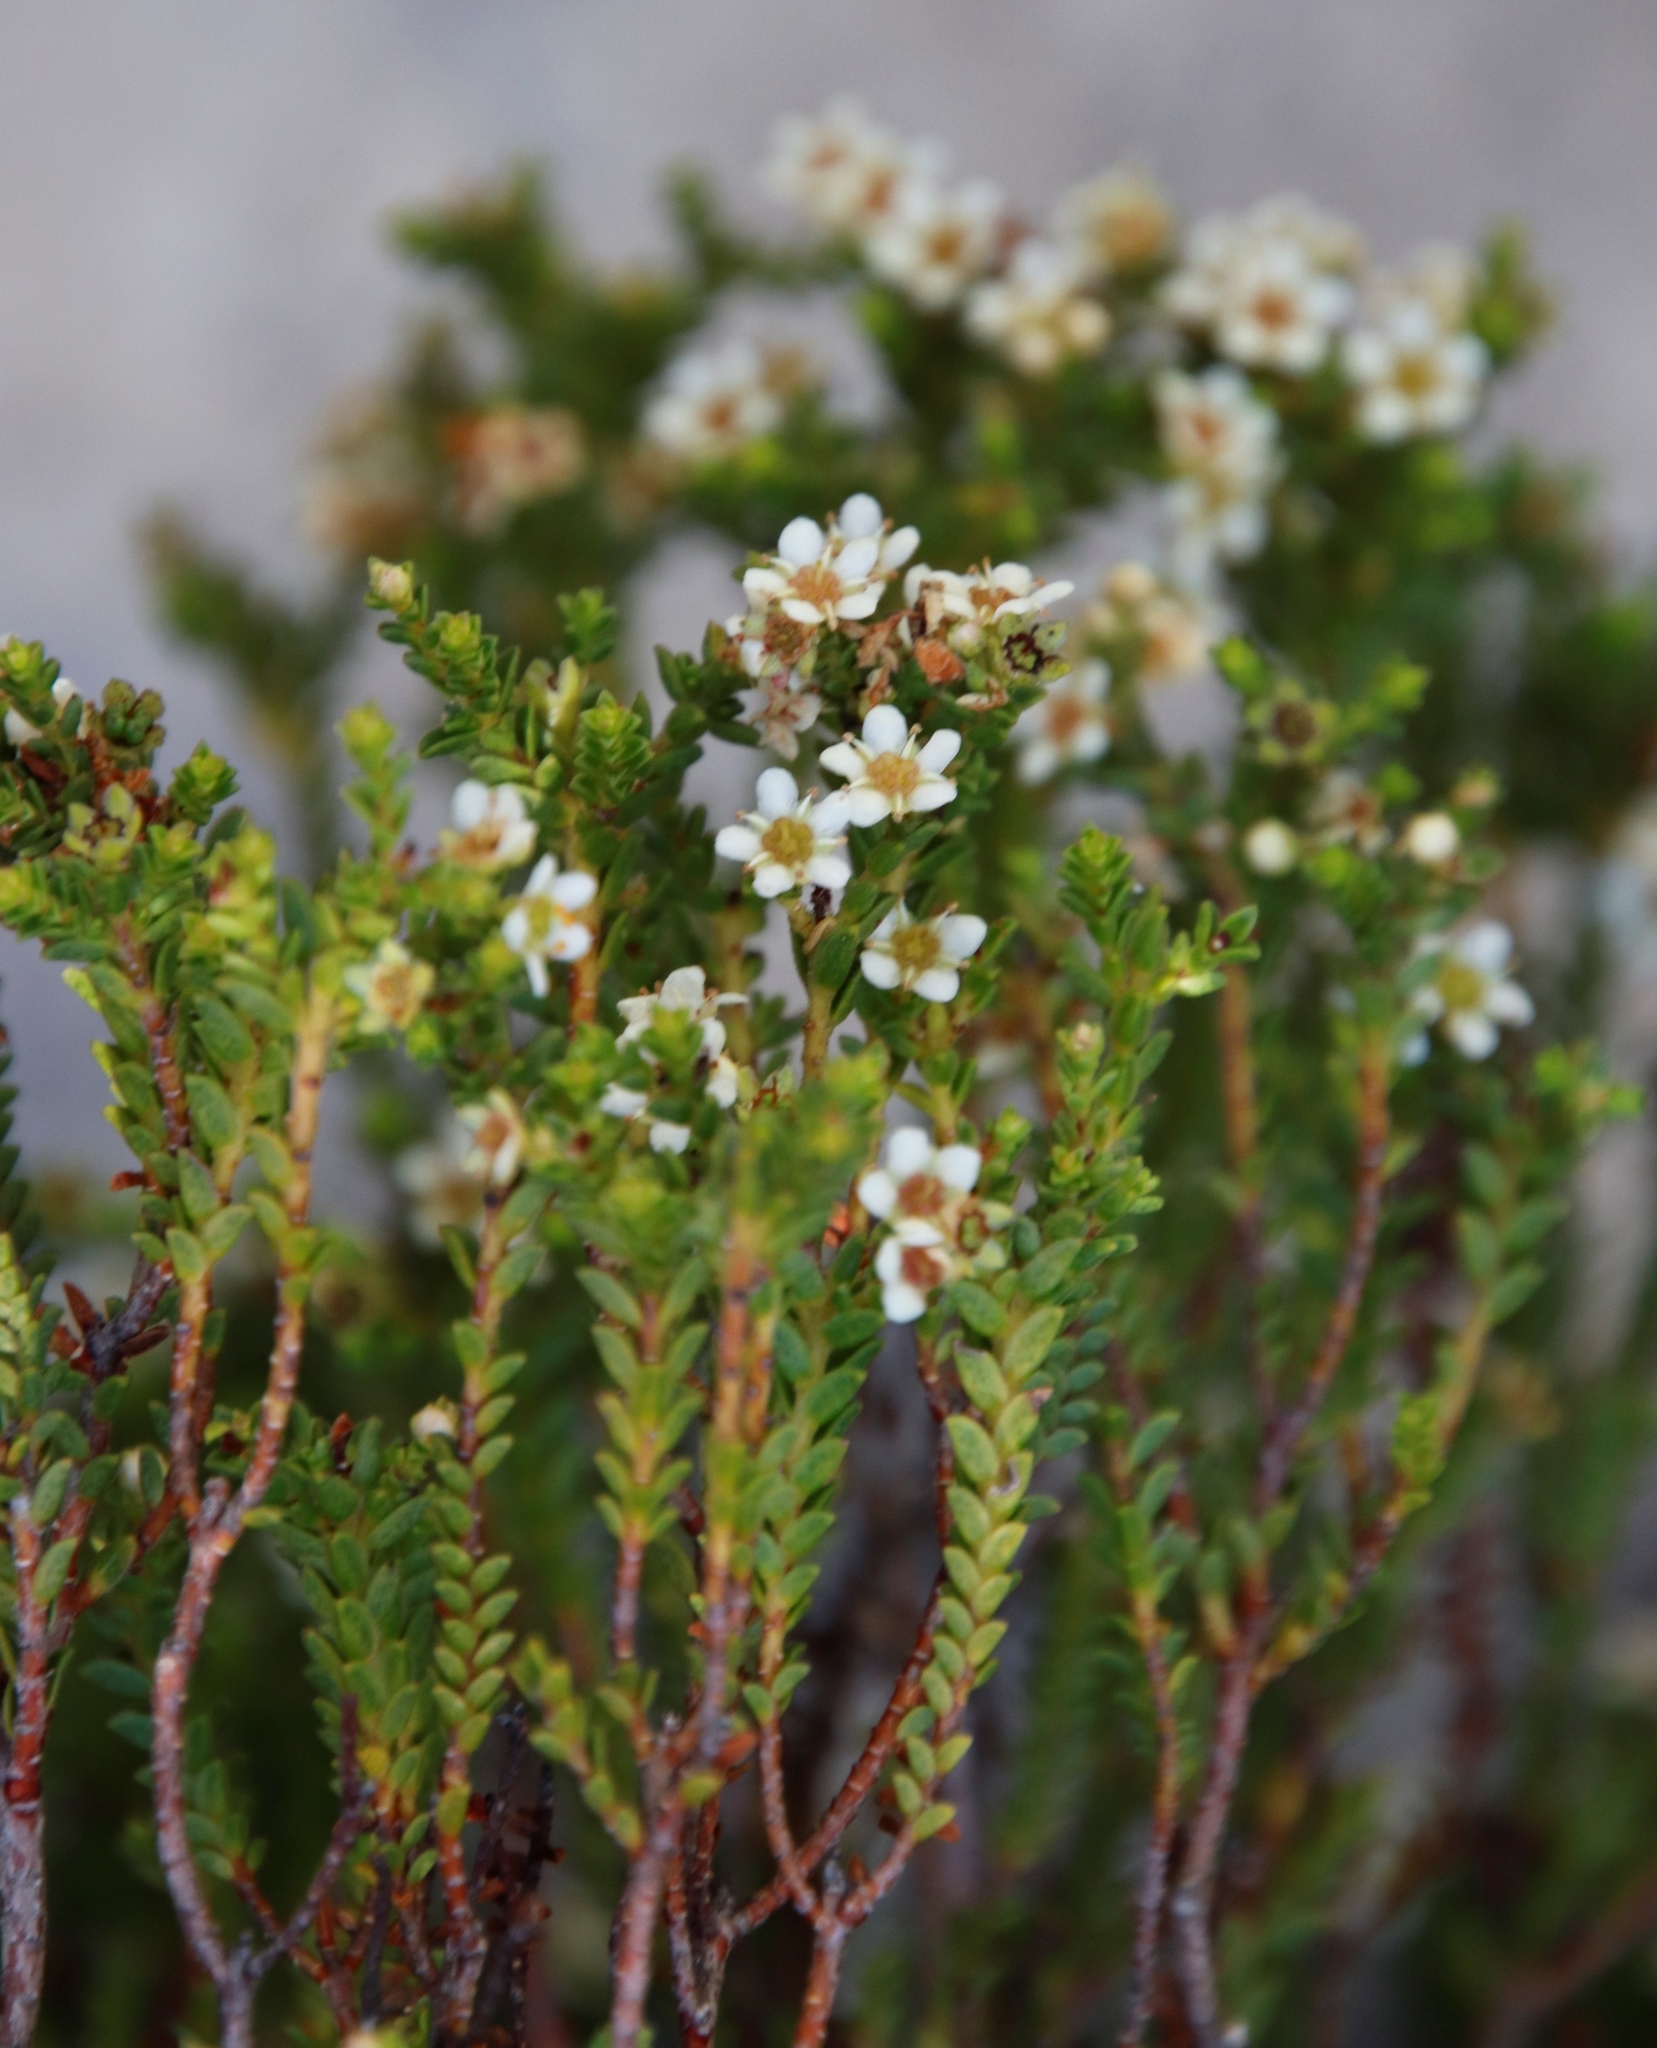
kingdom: Plantae
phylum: Tracheophyta
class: Magnoliopsida
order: Sapindales
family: Rutaceae
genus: Diosma
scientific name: Diosma oppositifolia
